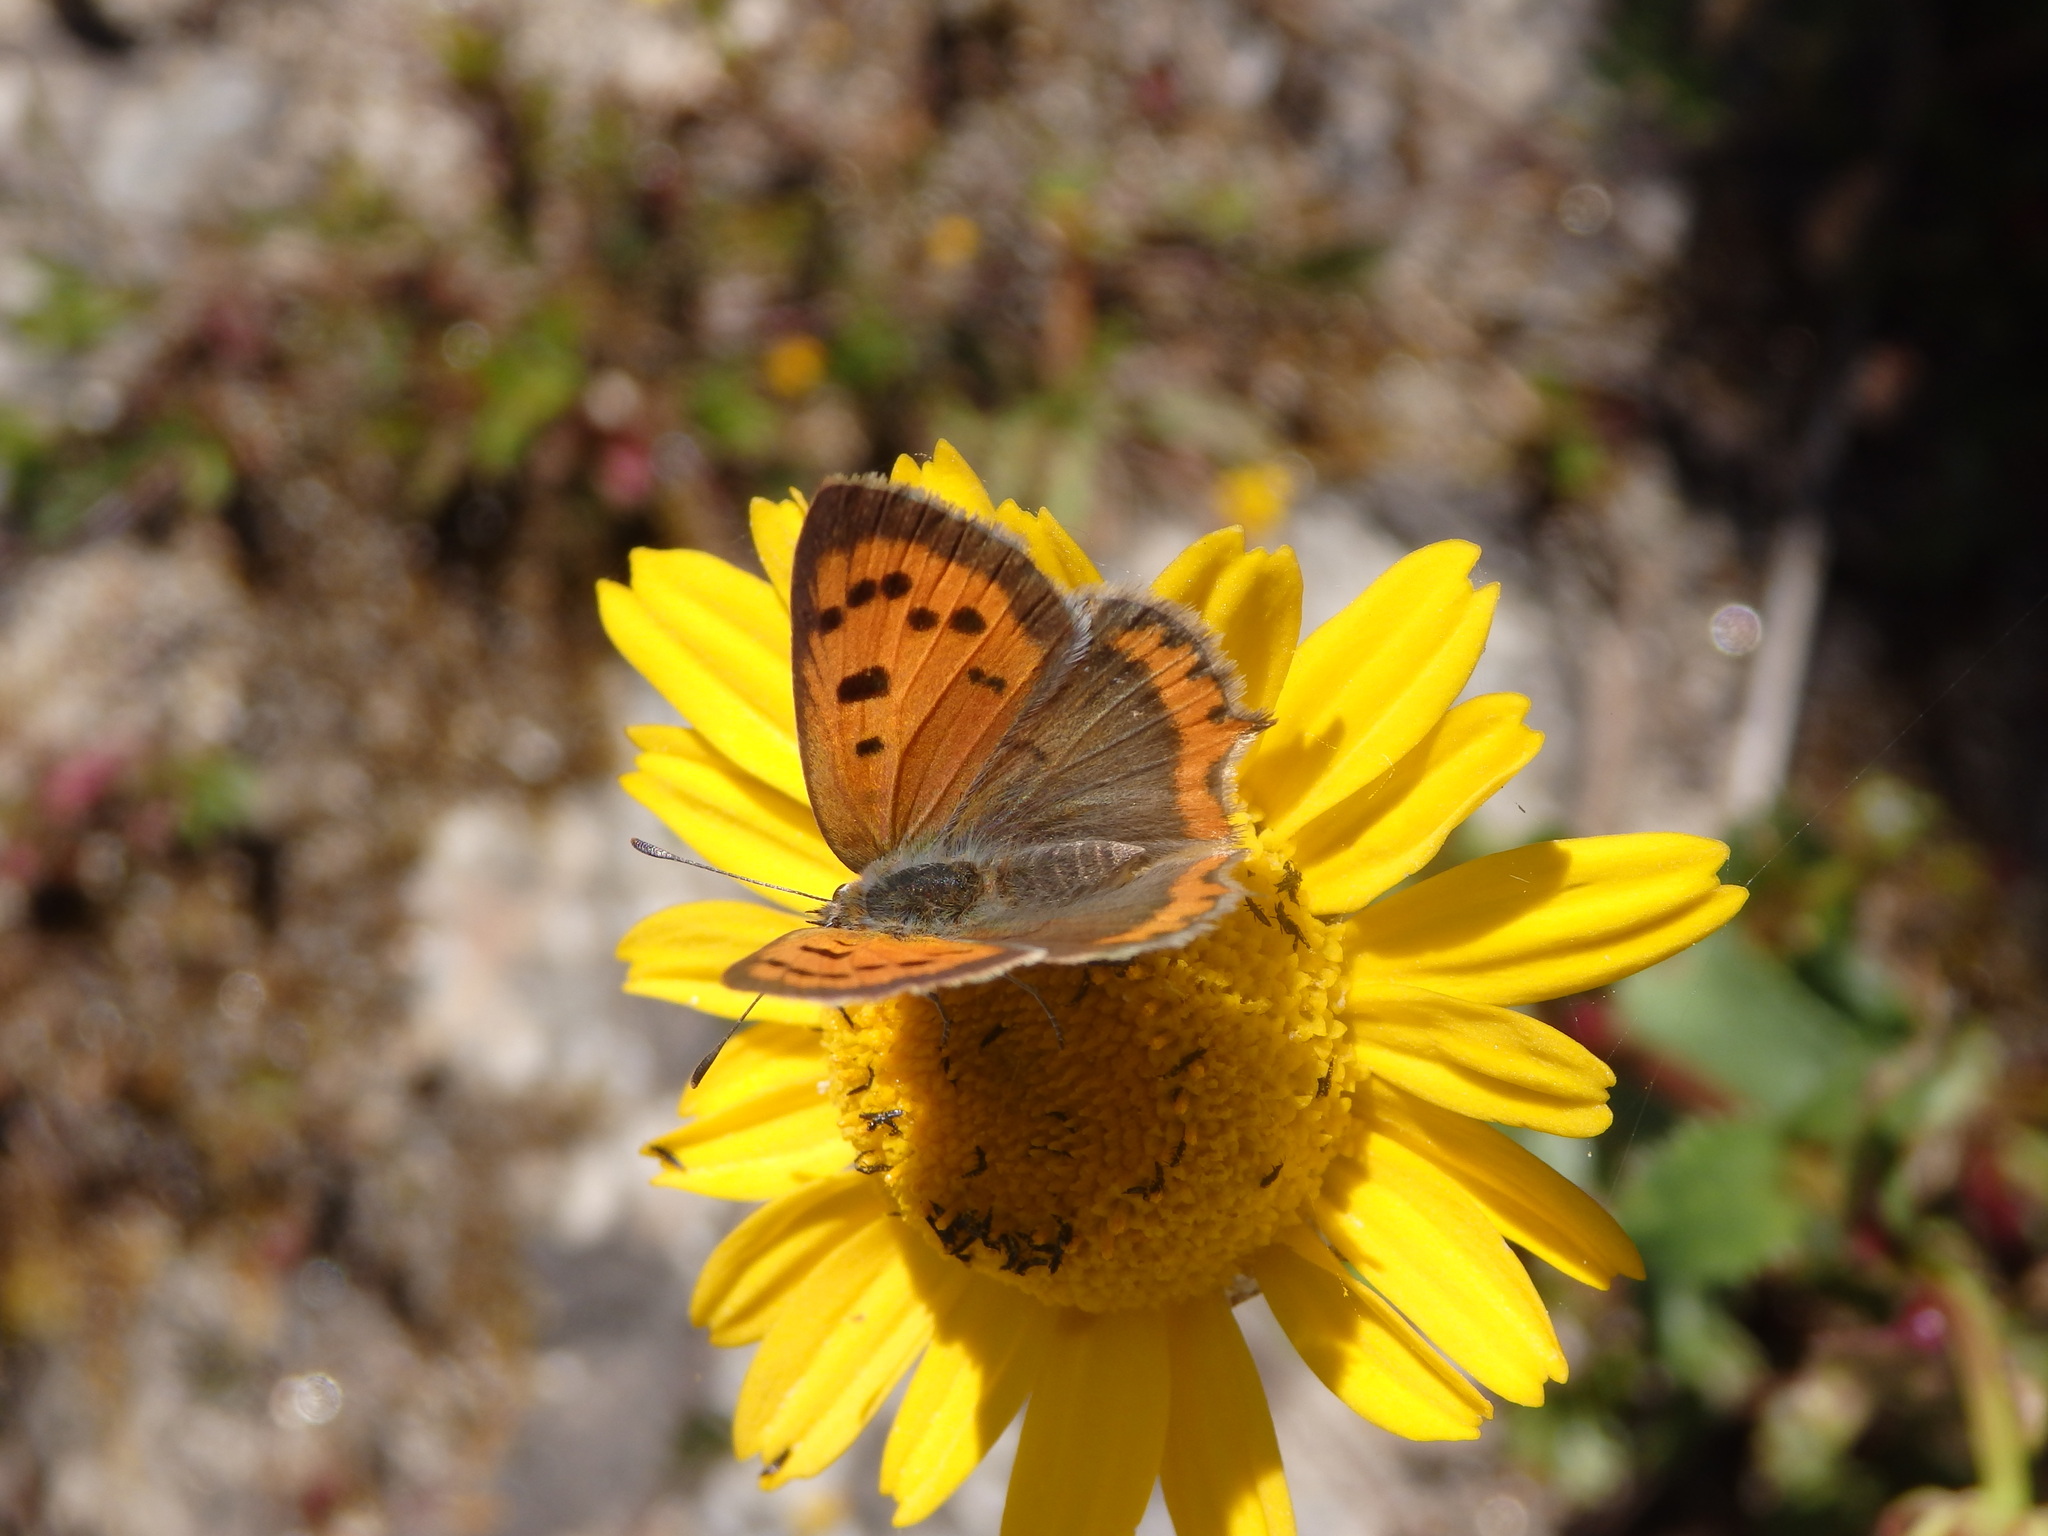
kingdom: Animalia
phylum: Arthropoda
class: Insecta
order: Lepidoptera
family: Lycaenidae
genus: Lycaena
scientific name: Lycaena phlaeas
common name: Small copper
